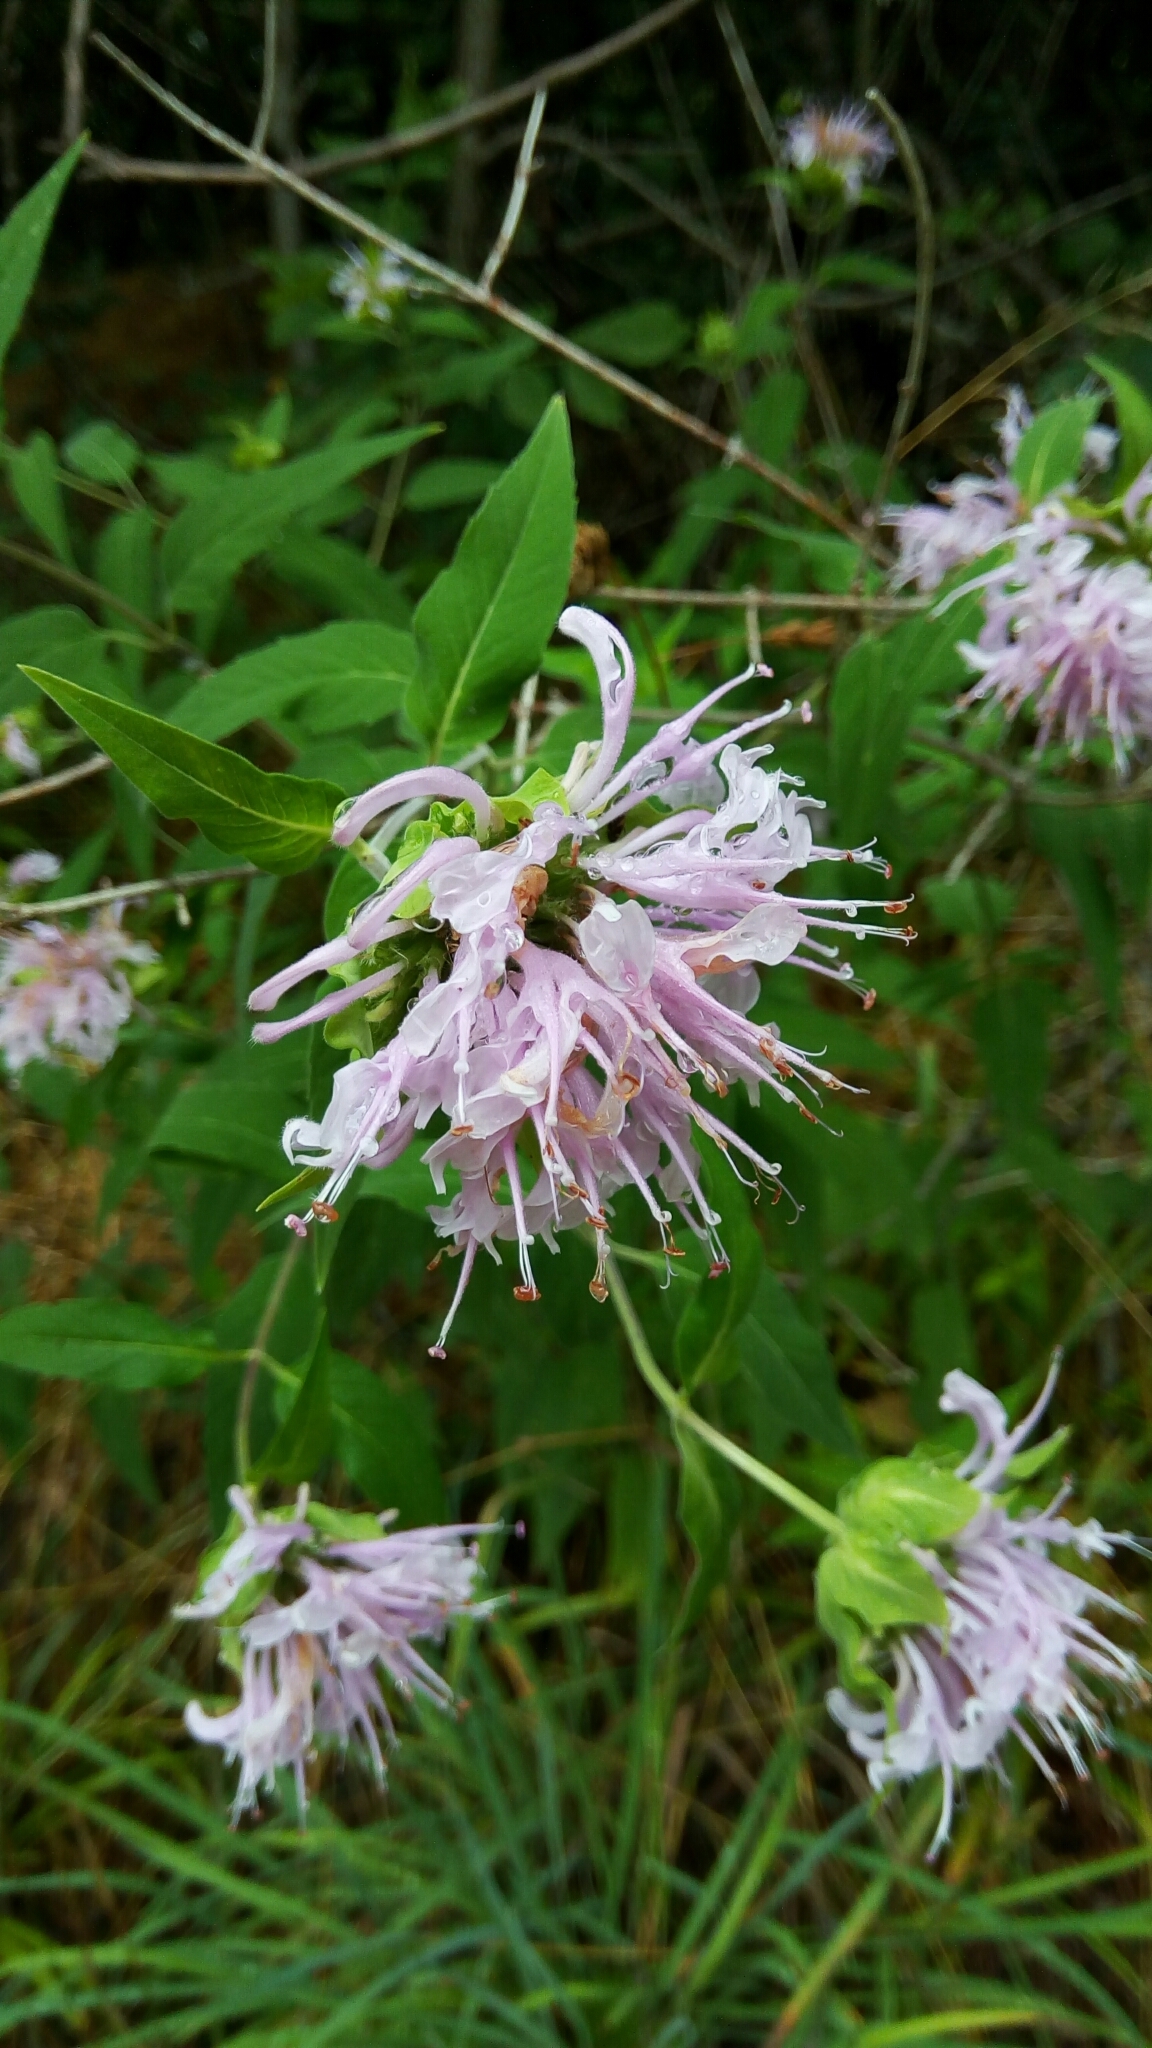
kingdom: Plantae
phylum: Tracheophyta
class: Magnoliopsida
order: Lamiales
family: Lamiaceae
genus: Monarda
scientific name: Monarda fistulosa
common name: Purple beebalm
